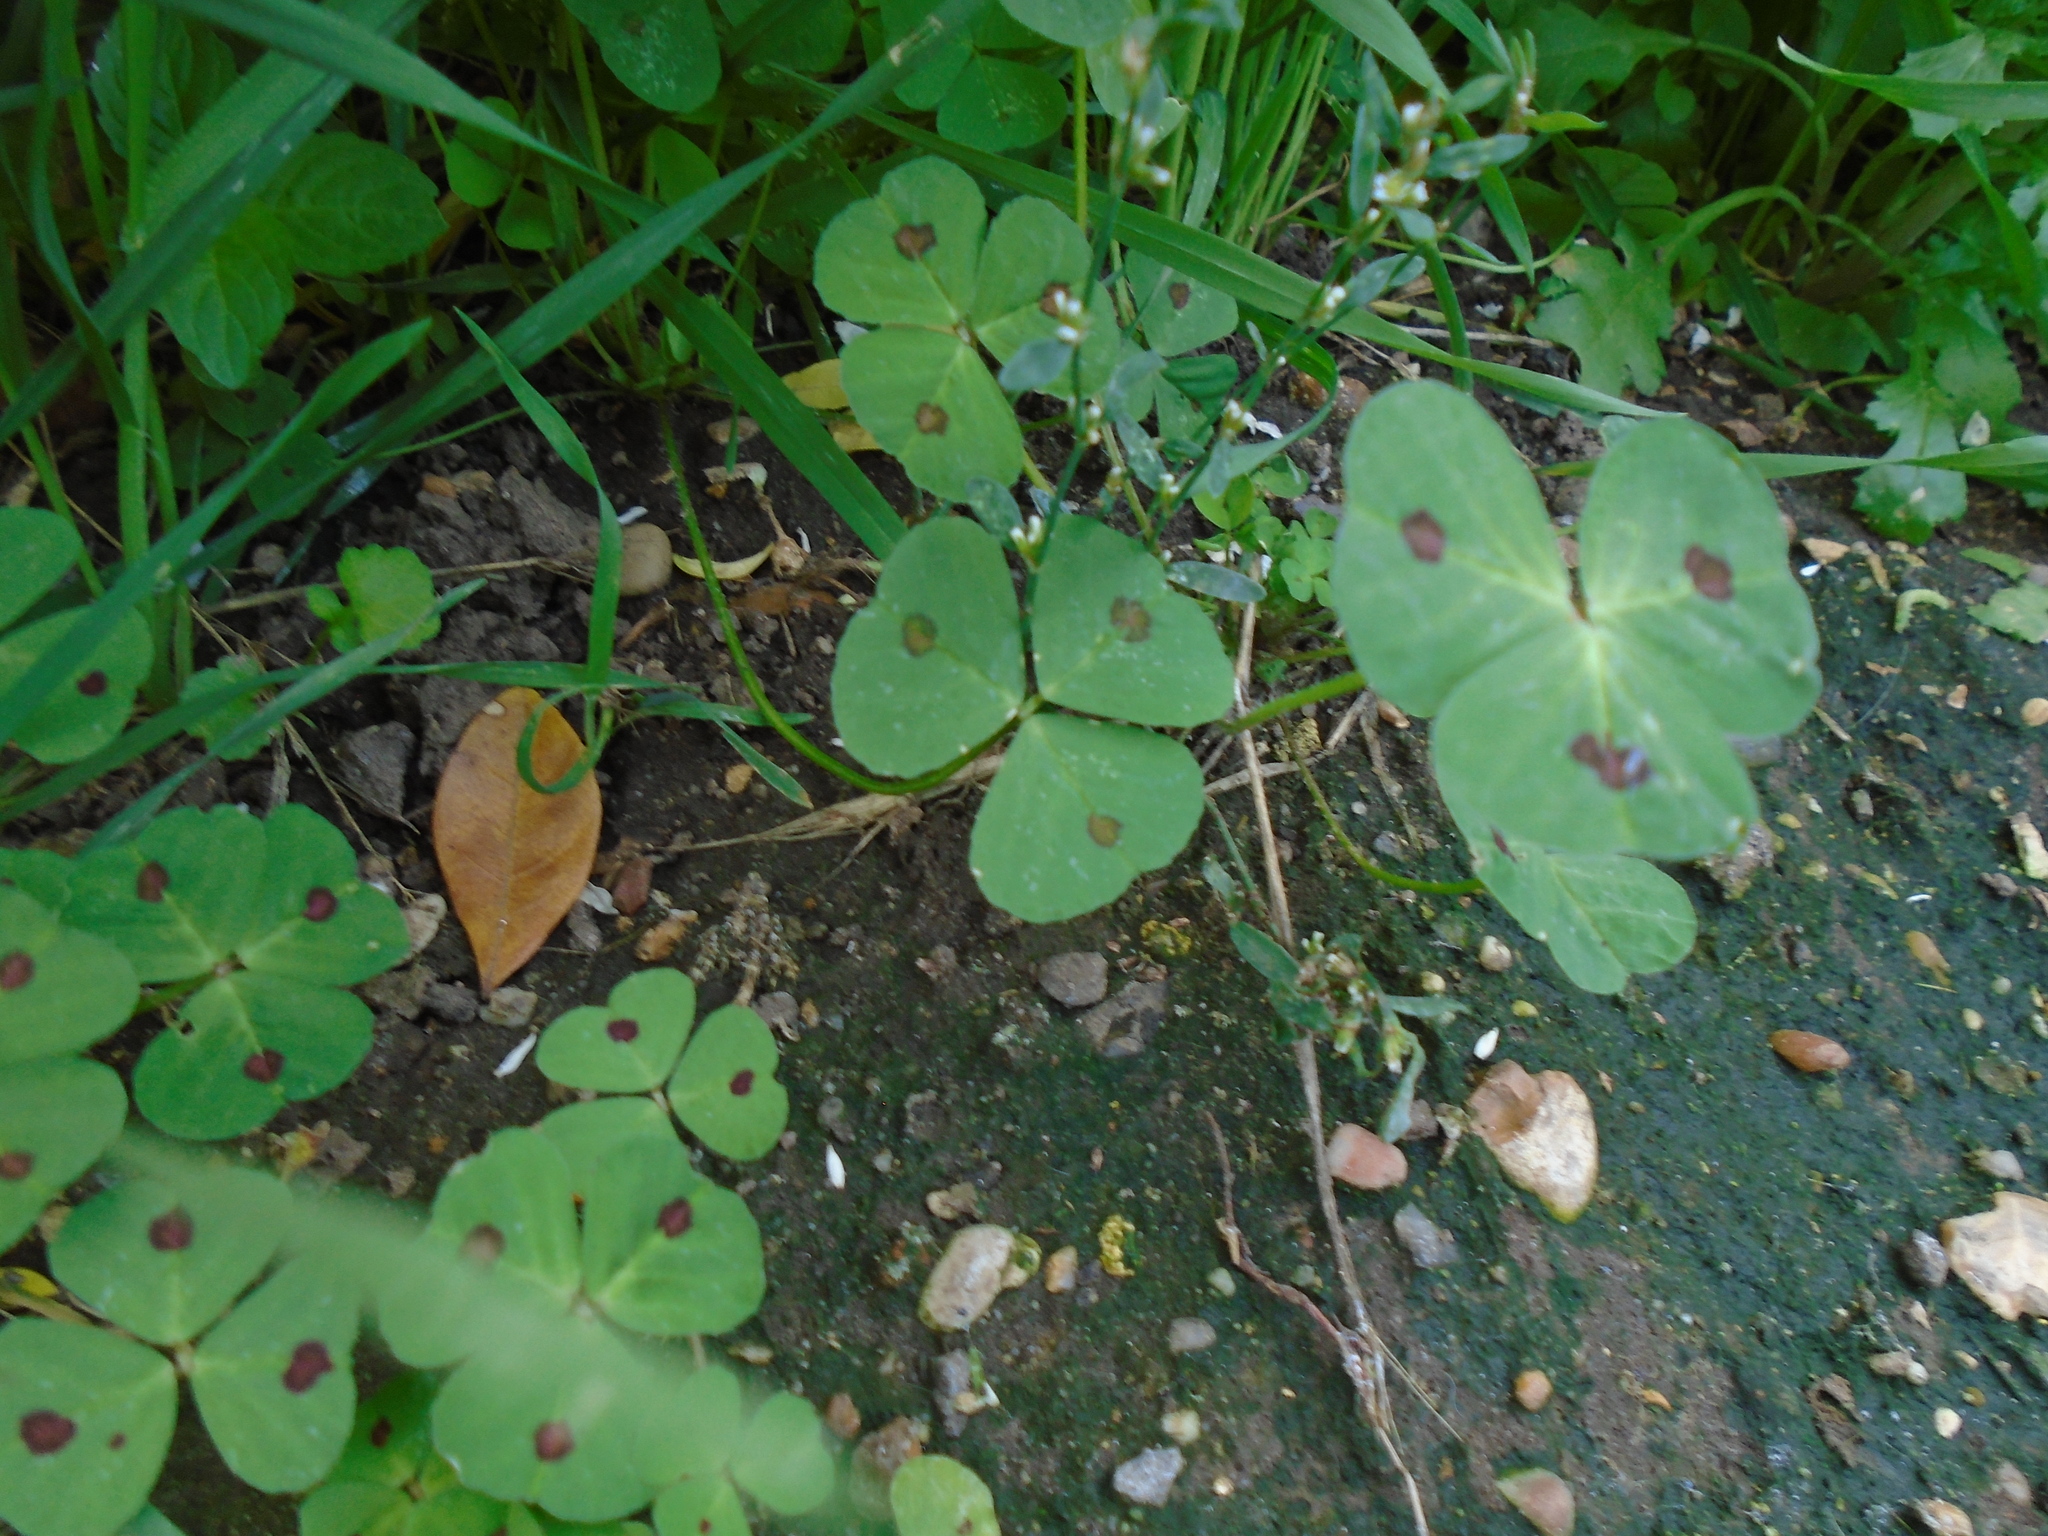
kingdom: Plantae
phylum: Tracheophyta
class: Magnoliopsida
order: Fabales
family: Fabaceae
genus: Medicago
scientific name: Medicago arabica
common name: Spotted medick
